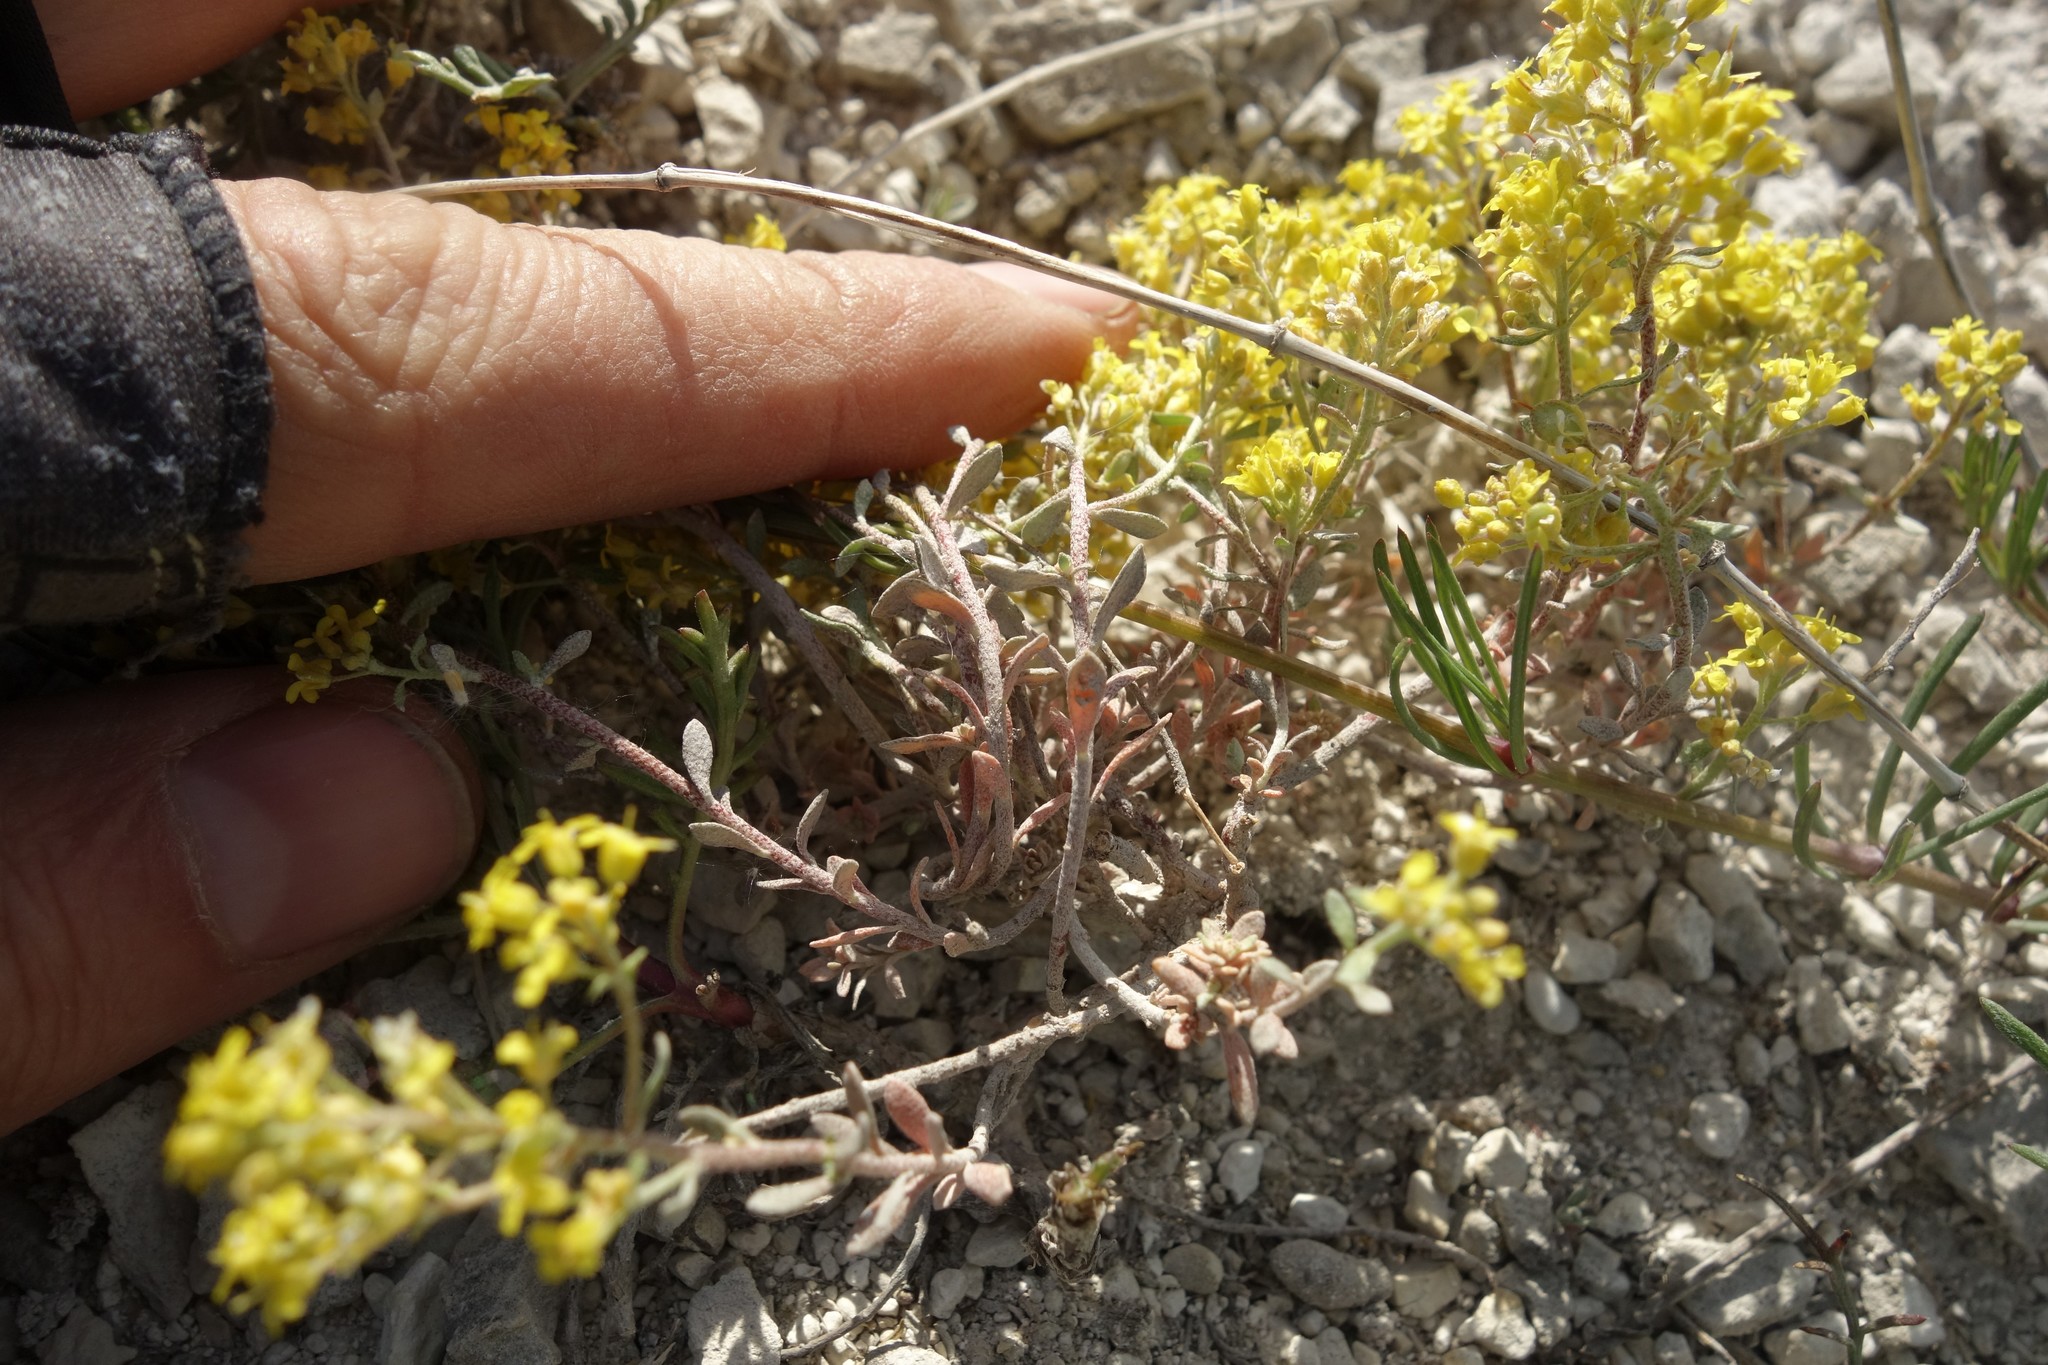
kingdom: Plantae
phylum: Tracheophyta
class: Magnoliopsida
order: Brassicales
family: Brassicaceae
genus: Odontarrhena
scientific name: Odontarrhena tortuosa
